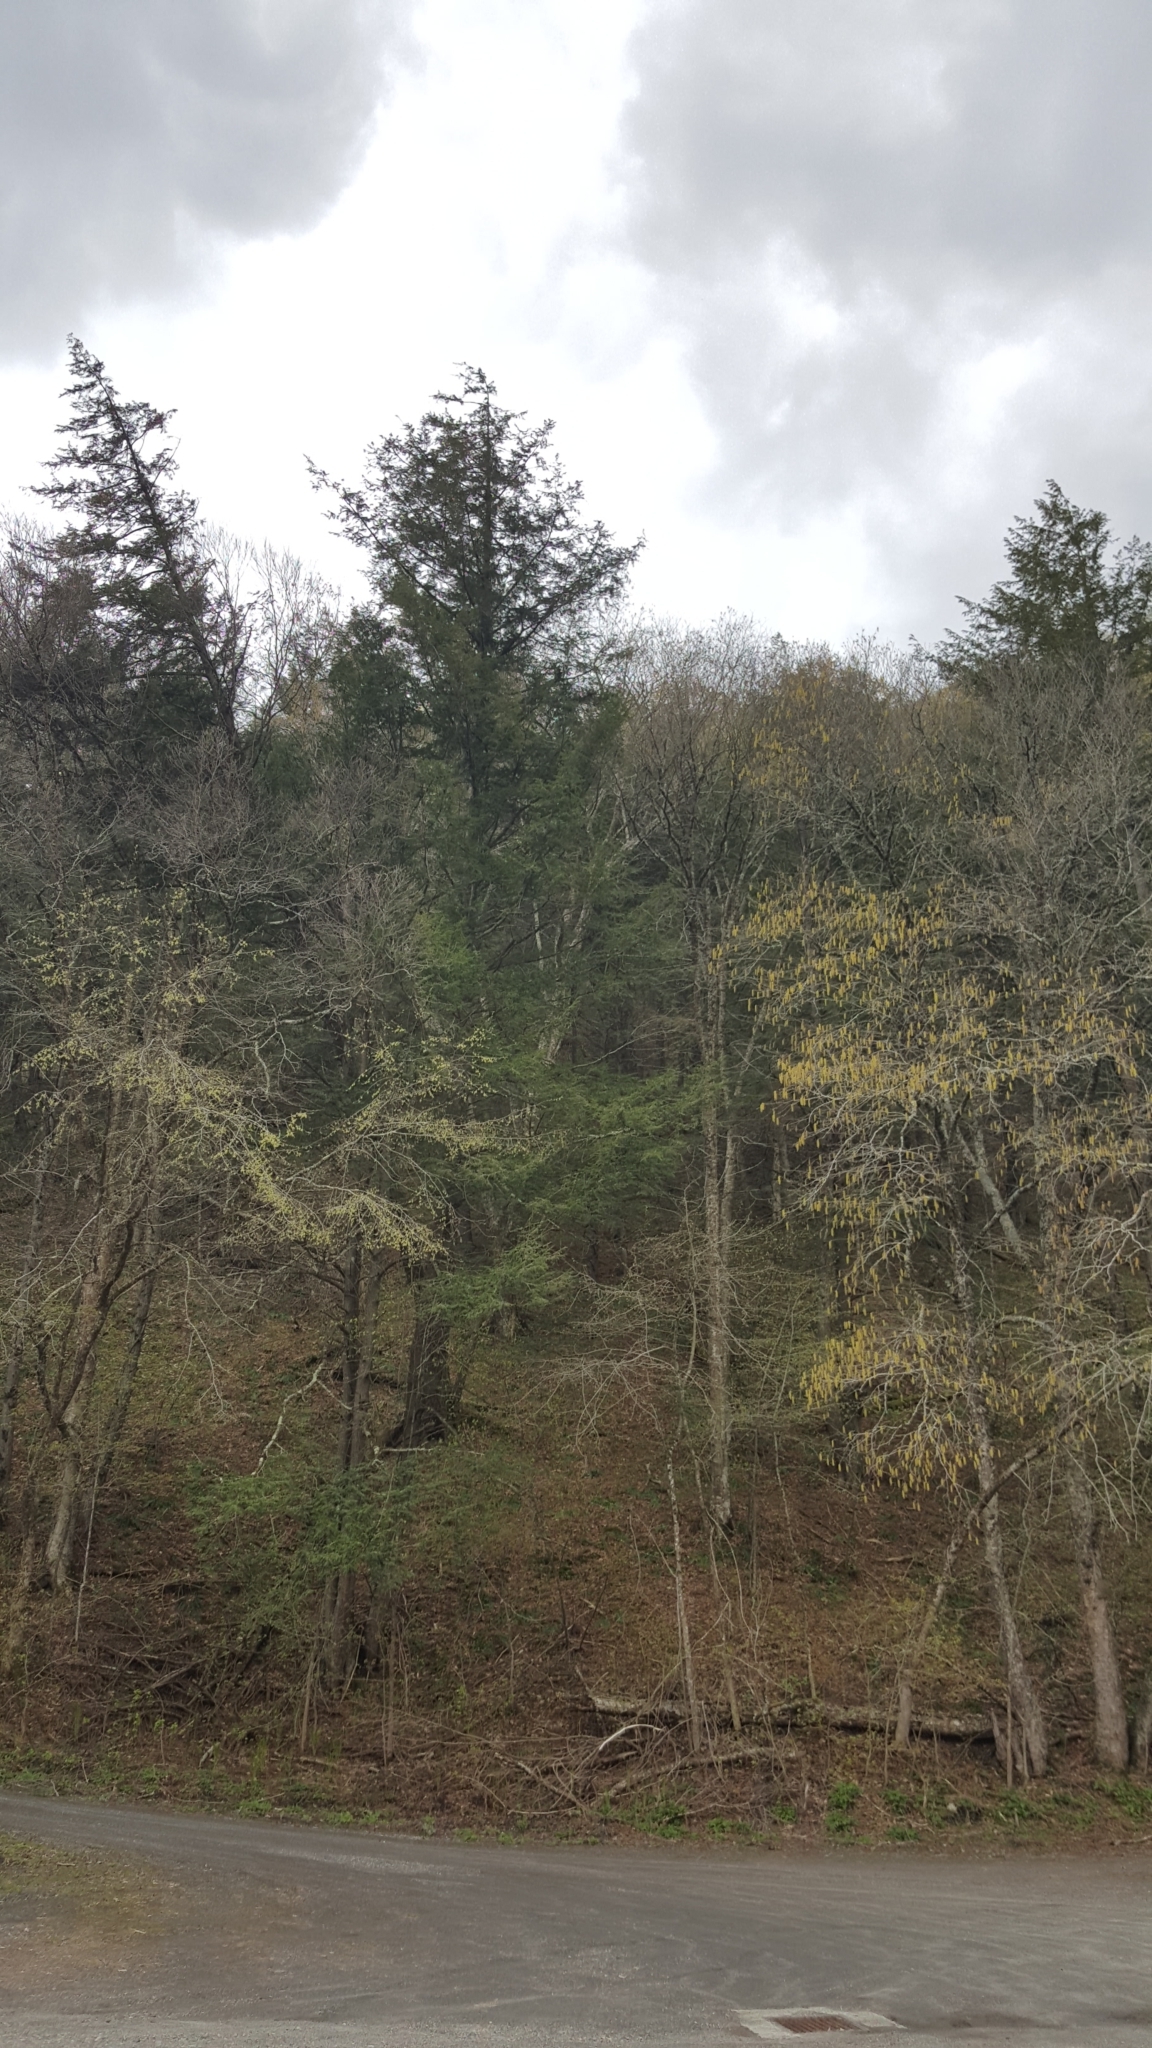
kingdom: Plantae
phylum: Tracheophyta
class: Pinopsida
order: Pinales
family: Pinaceae
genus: Tsuga
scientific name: Tsuga canadensis
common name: Eastern hemlock
